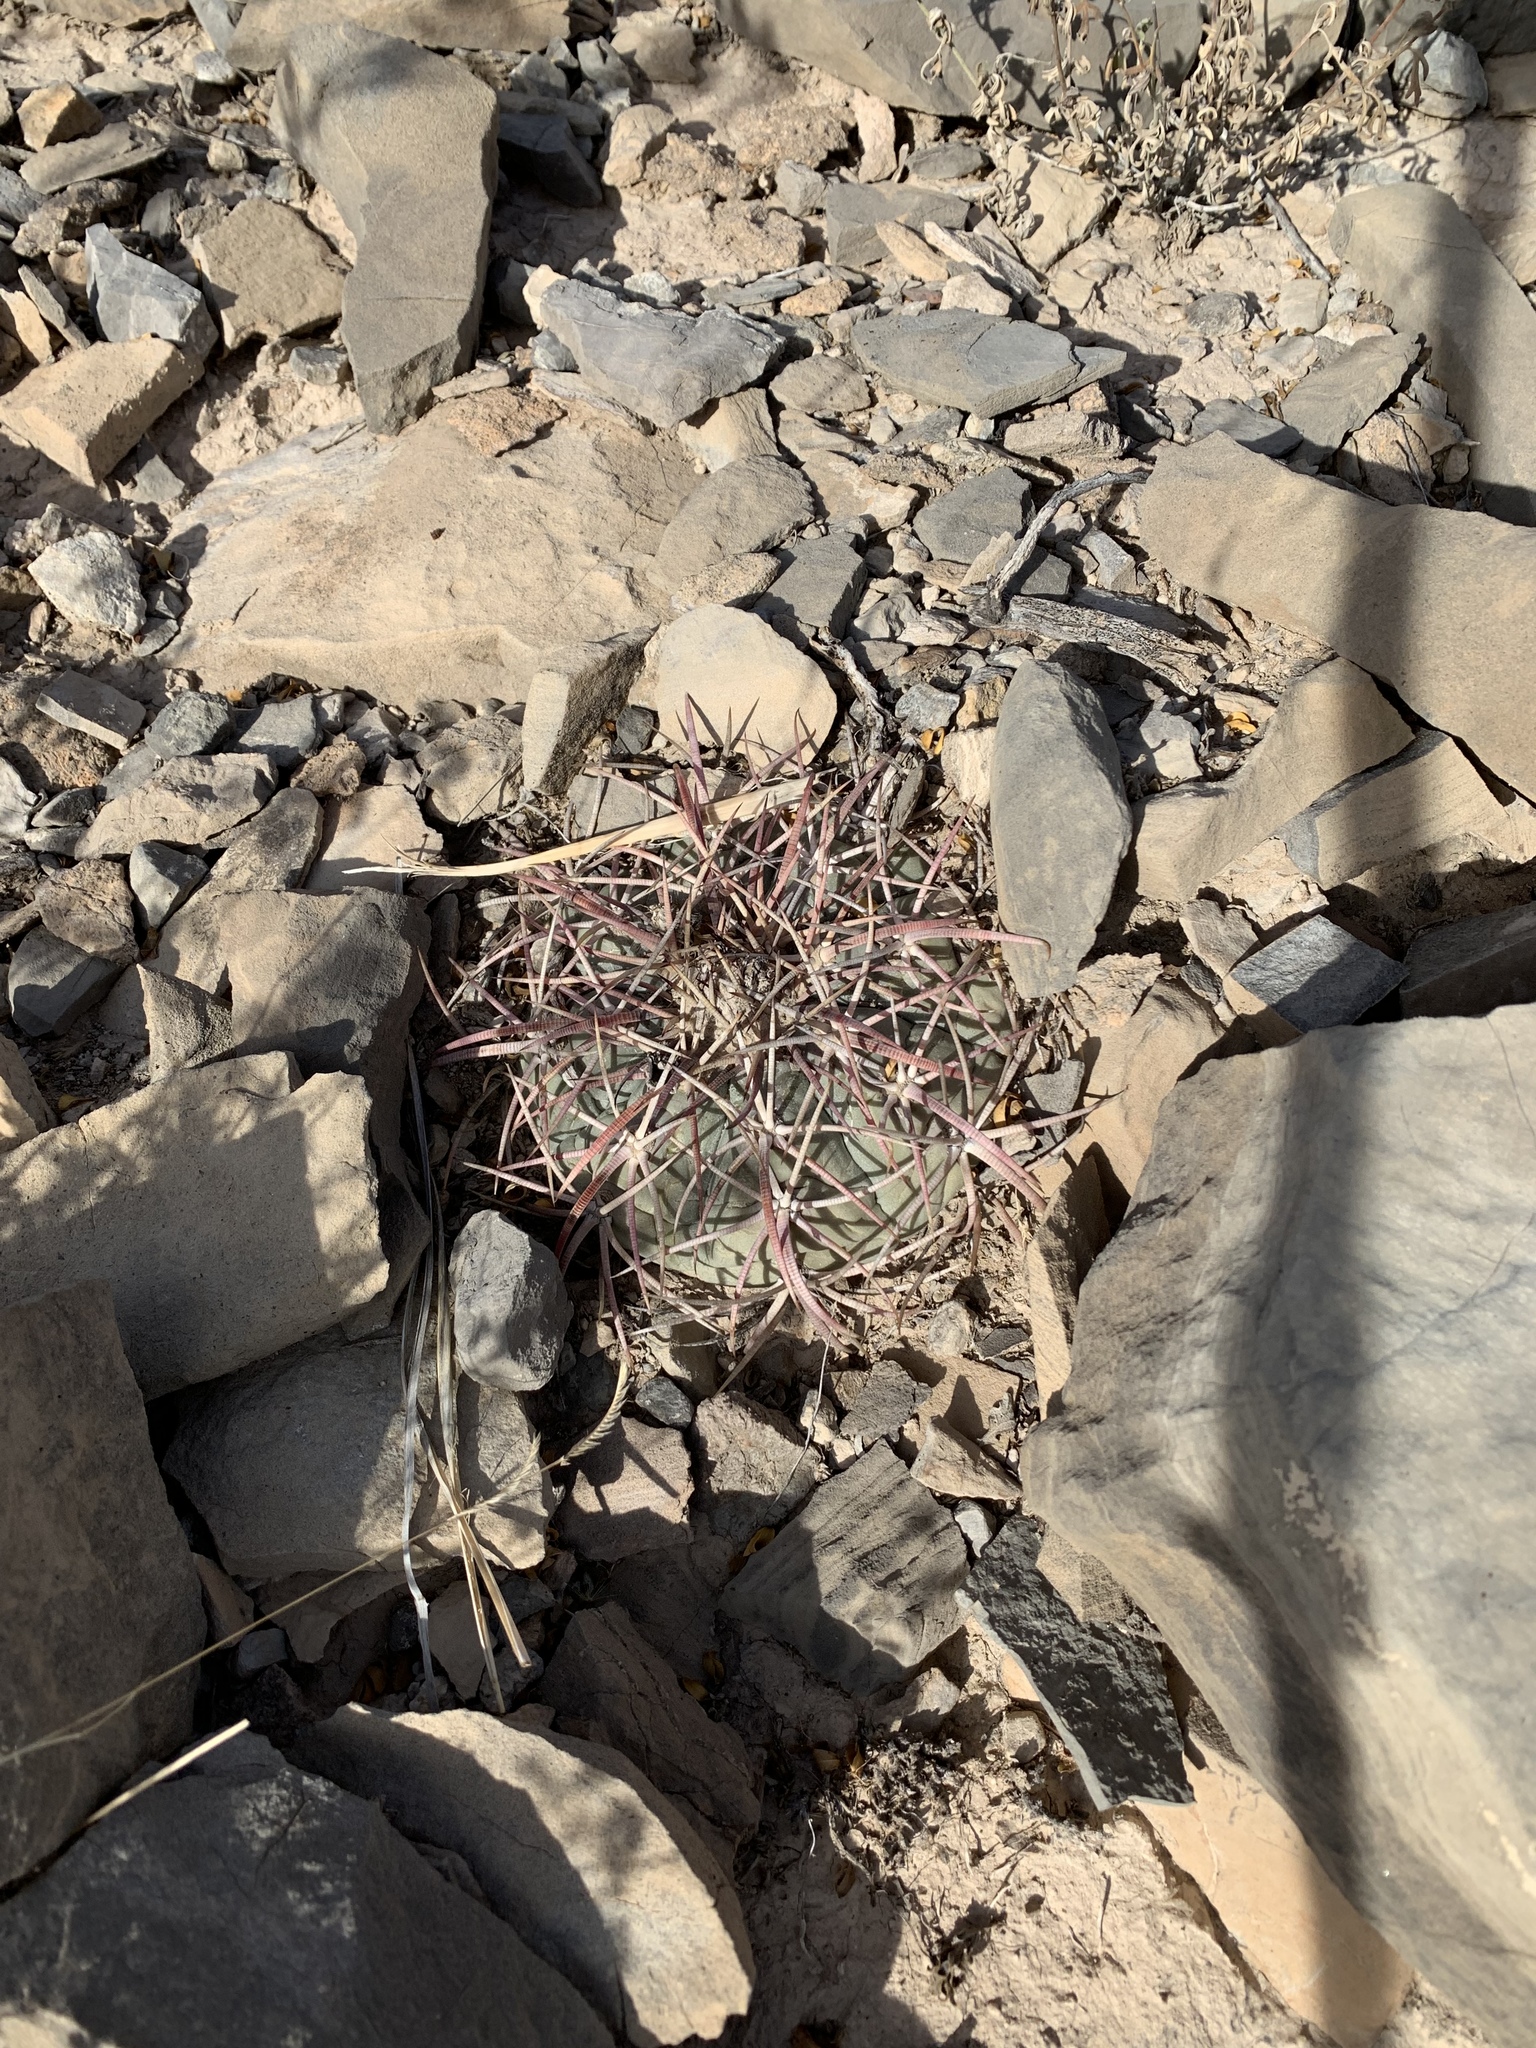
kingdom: Plantae
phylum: Tracheophyta
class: Magnoliopsida
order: Caryophyllales
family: Cactaceae
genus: Echinocactus
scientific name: Echinocactus horizonthalonius
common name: Devilshead
